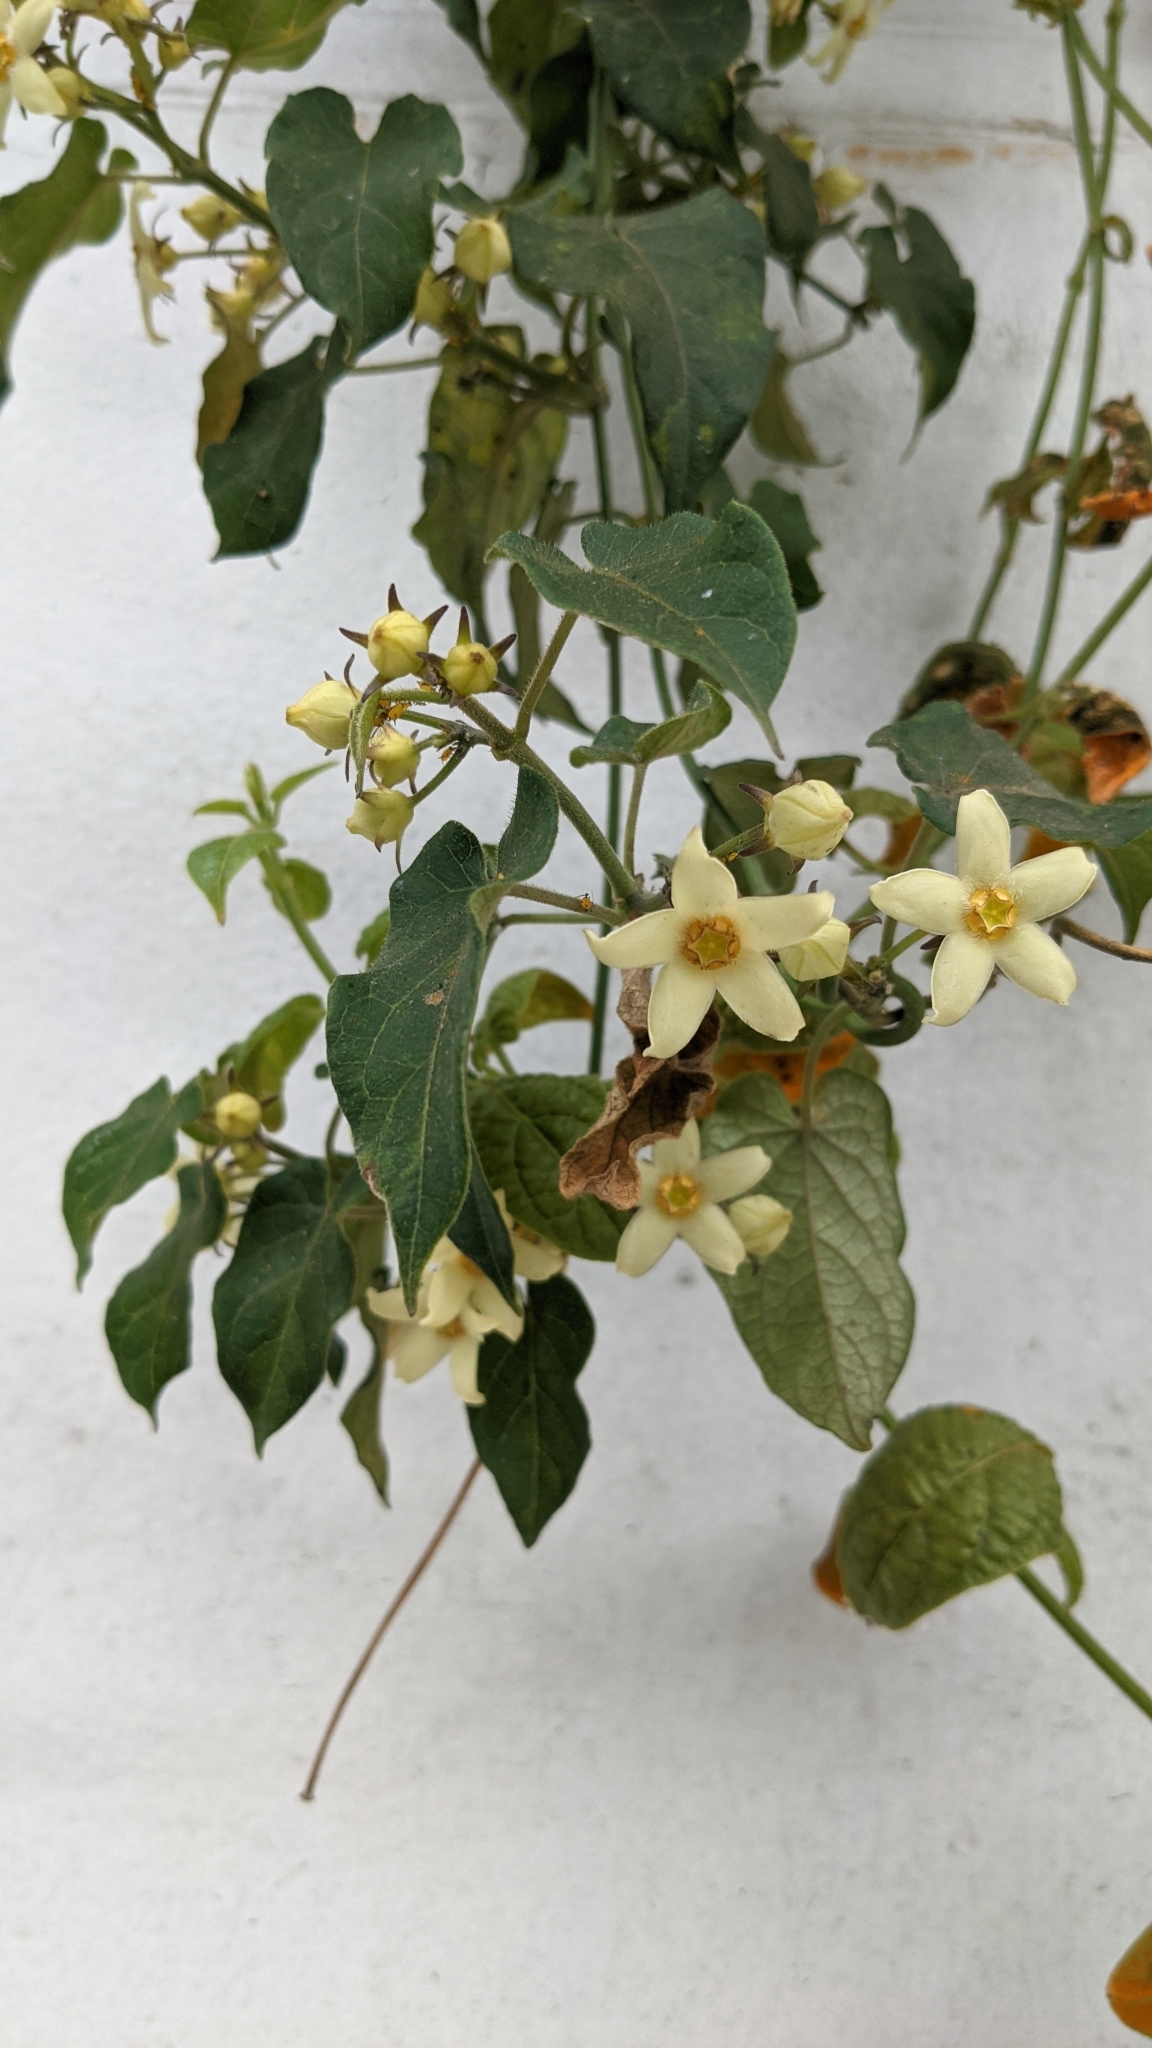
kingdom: Plantae
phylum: Tracheophyta
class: Magnoliopsida
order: Gentianales
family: Apocynaceae
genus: Gonolobus
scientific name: Gonolobus edulis
